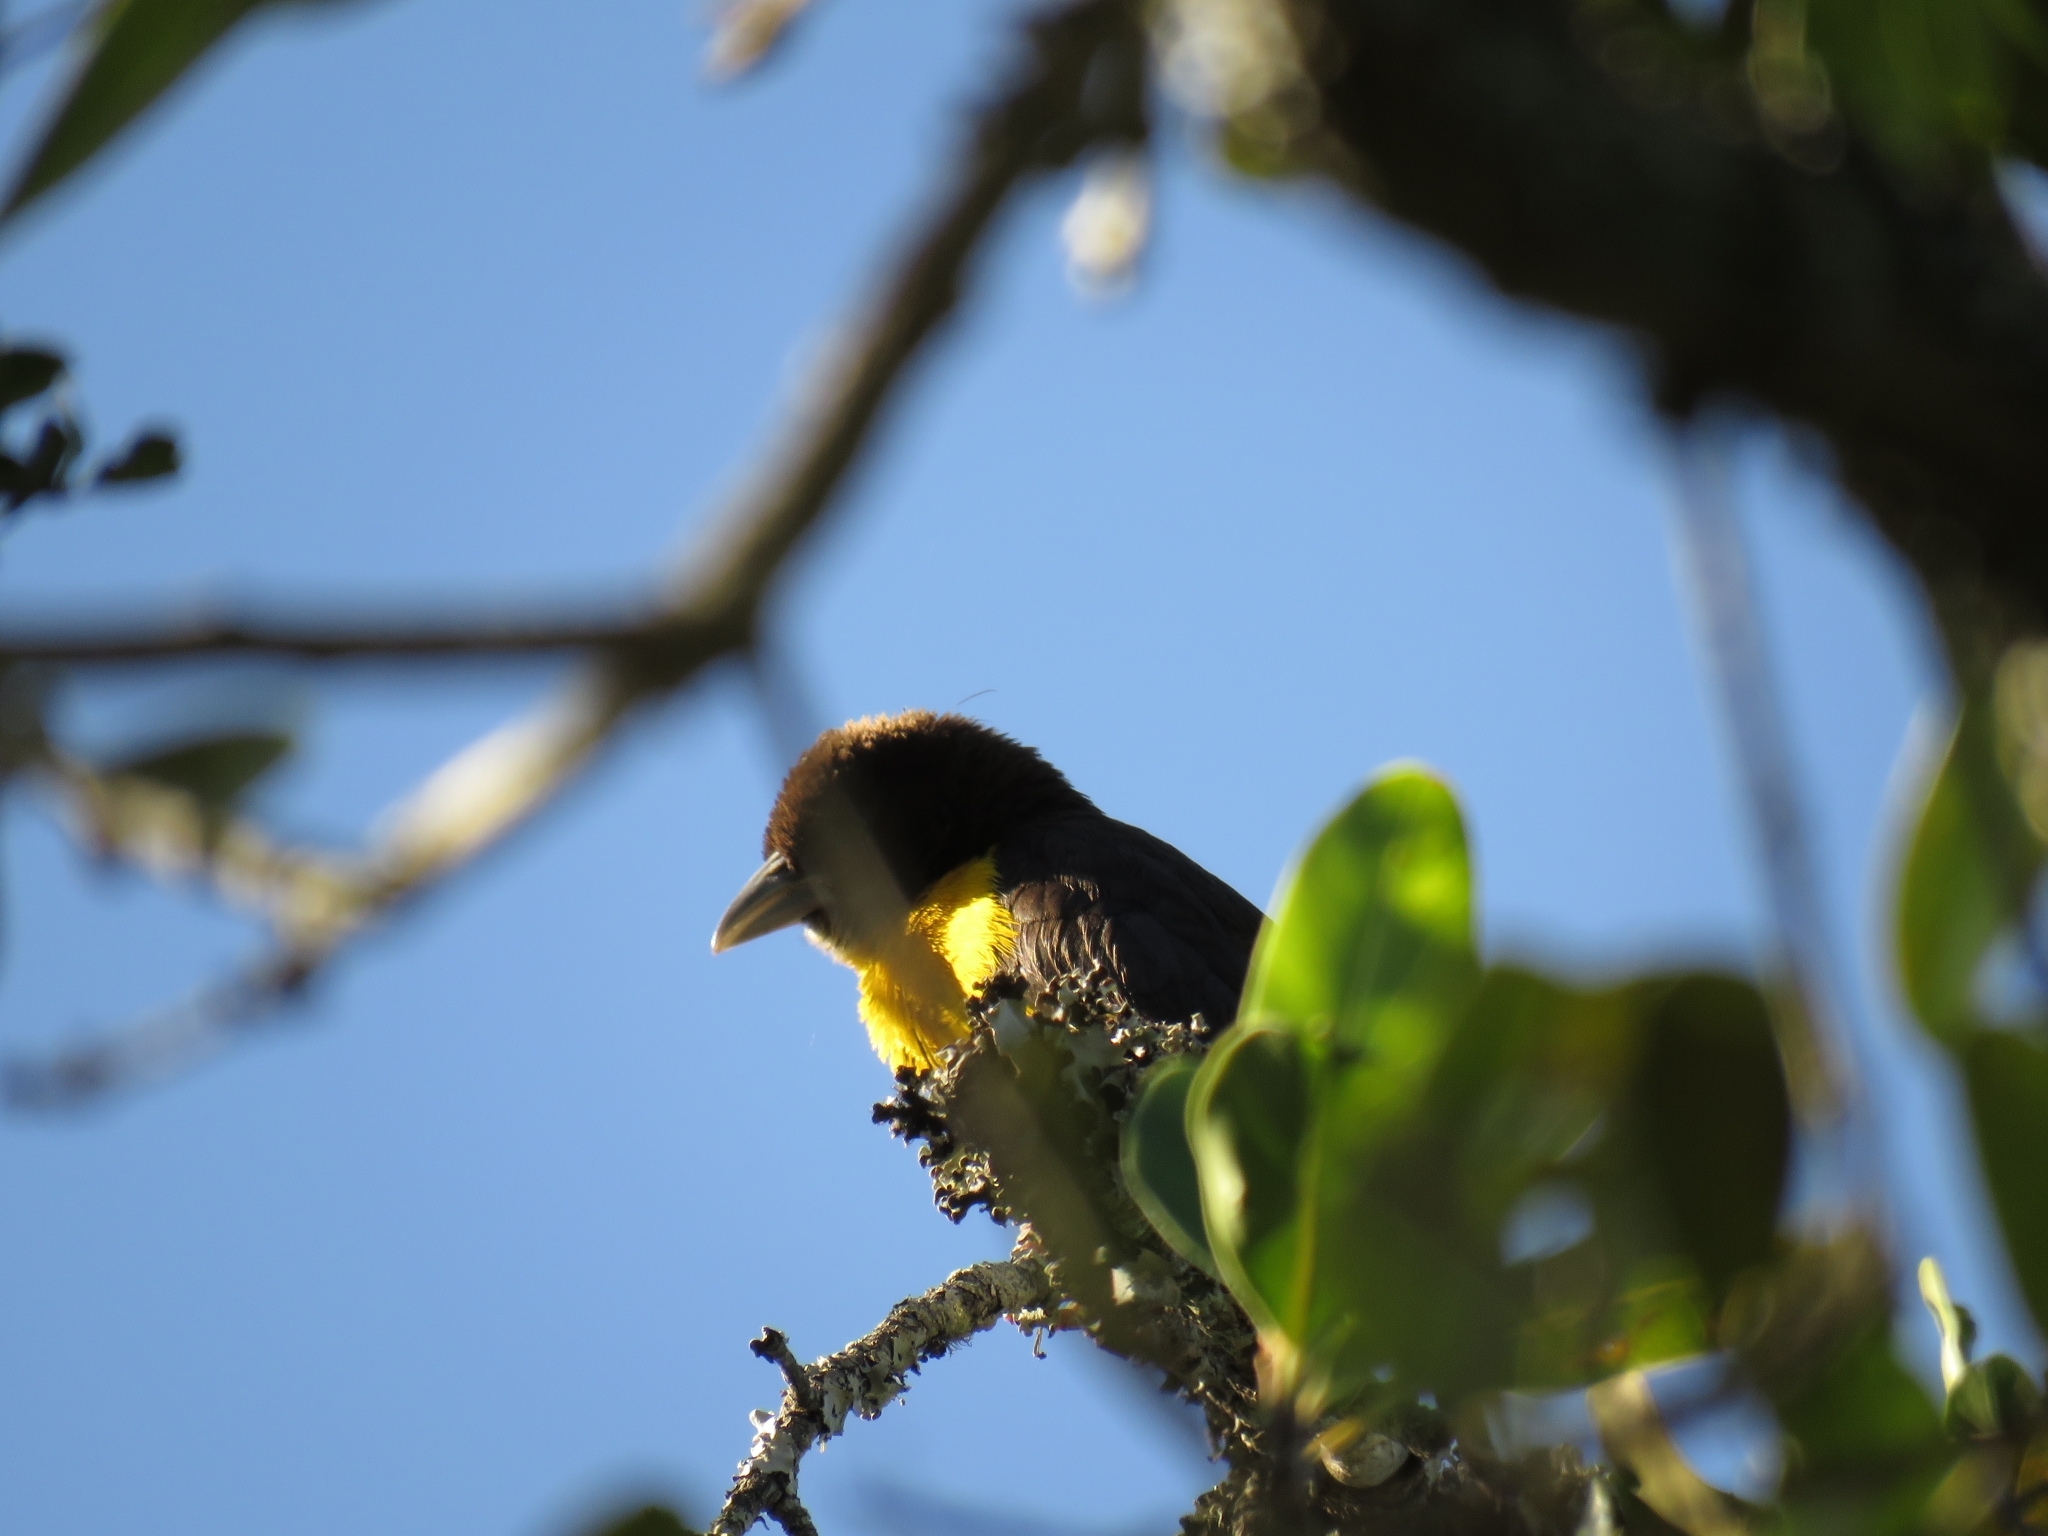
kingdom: Animalia
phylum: Chordata
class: Aves
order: Passeriformes
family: Ploceidae
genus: Ploceus
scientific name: Ploceus bicolor
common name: Dark-backed weaver
